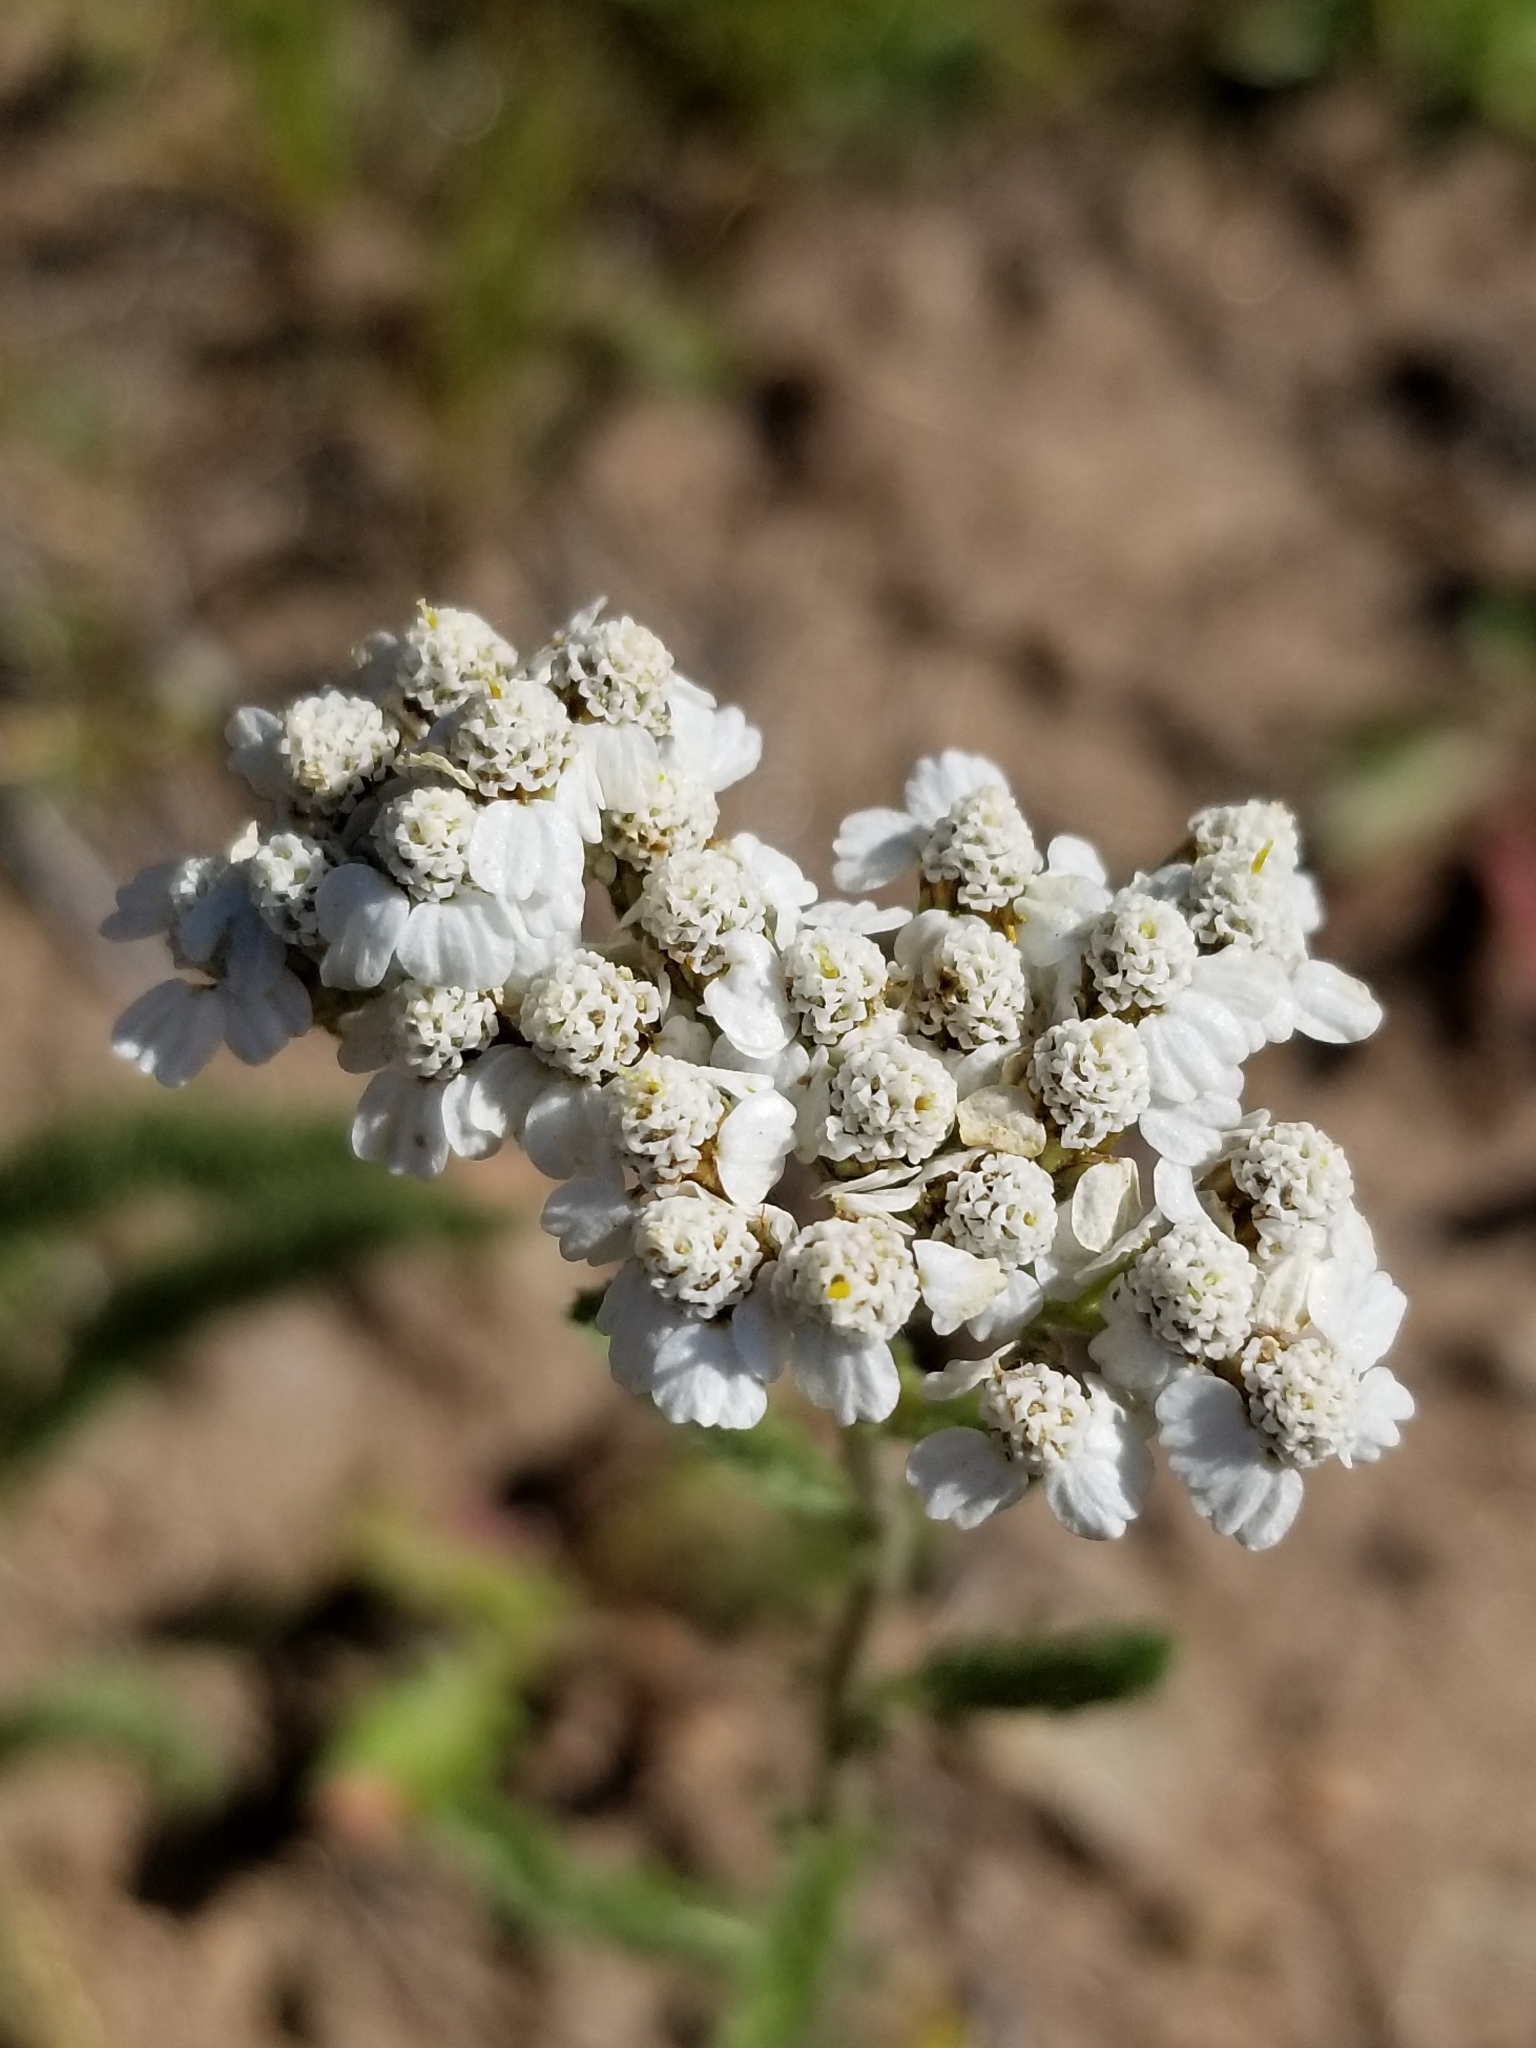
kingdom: Plantae
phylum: Tracheophyta
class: Magnoliopsida
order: Asterales
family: Asteraceae
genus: Achillea
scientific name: Achillea millefolium
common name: Yarrow
